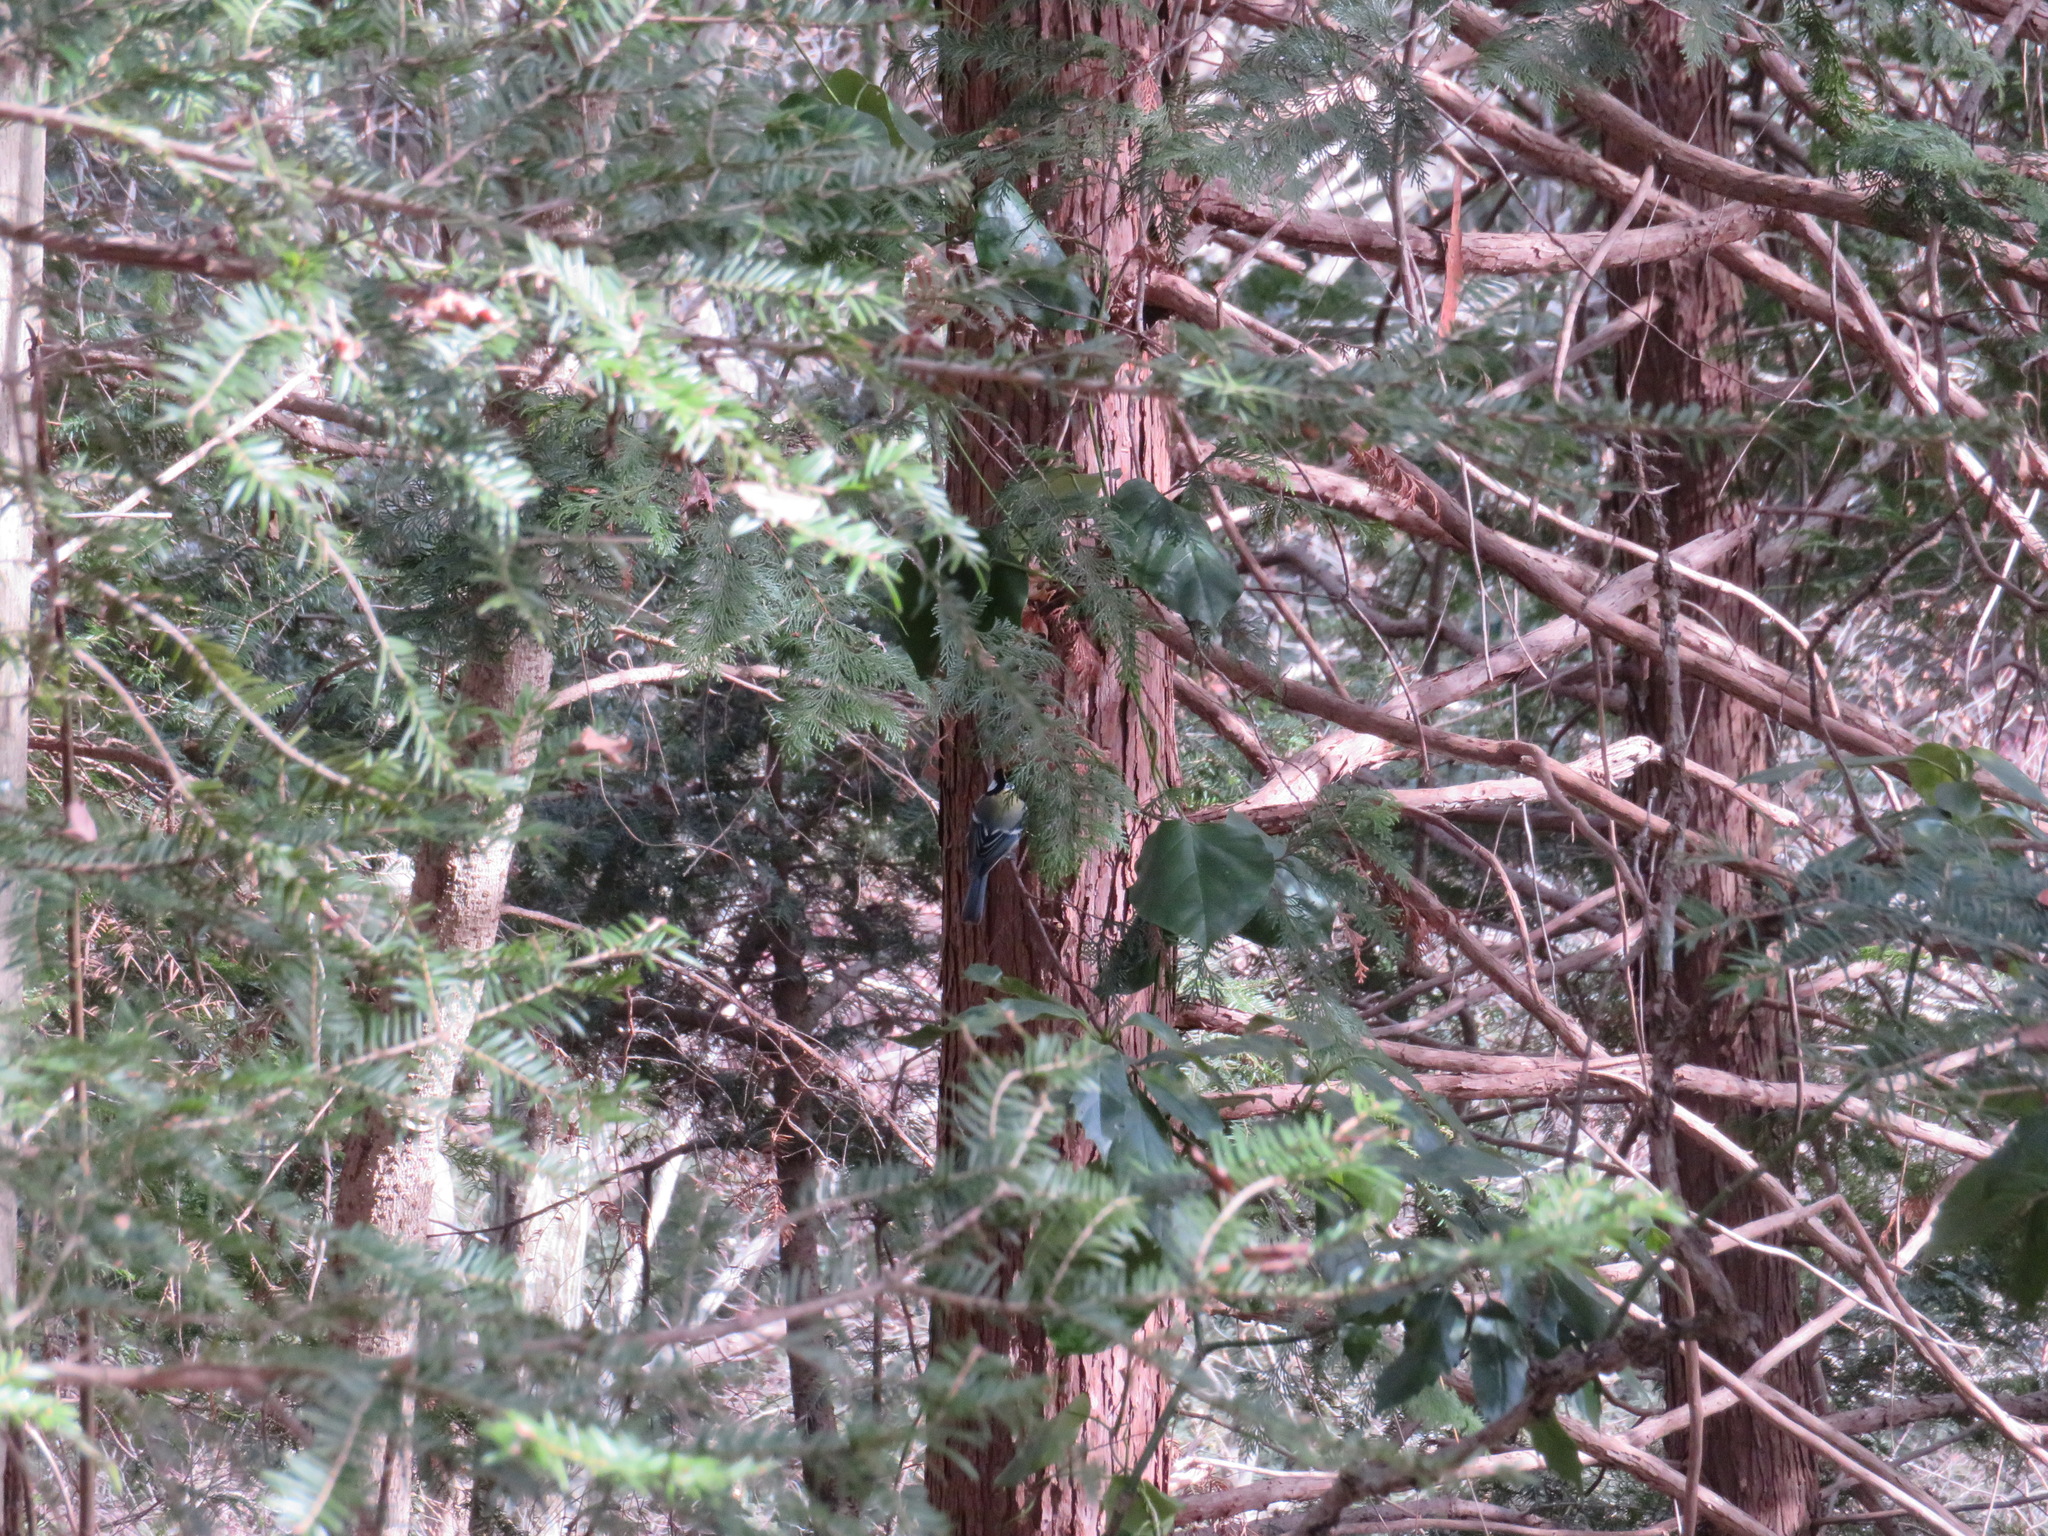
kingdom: Animalia
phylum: Chordata
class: Aves
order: Passeriformes
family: Paridae
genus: Parus
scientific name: Parus minor
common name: Japanese tit
